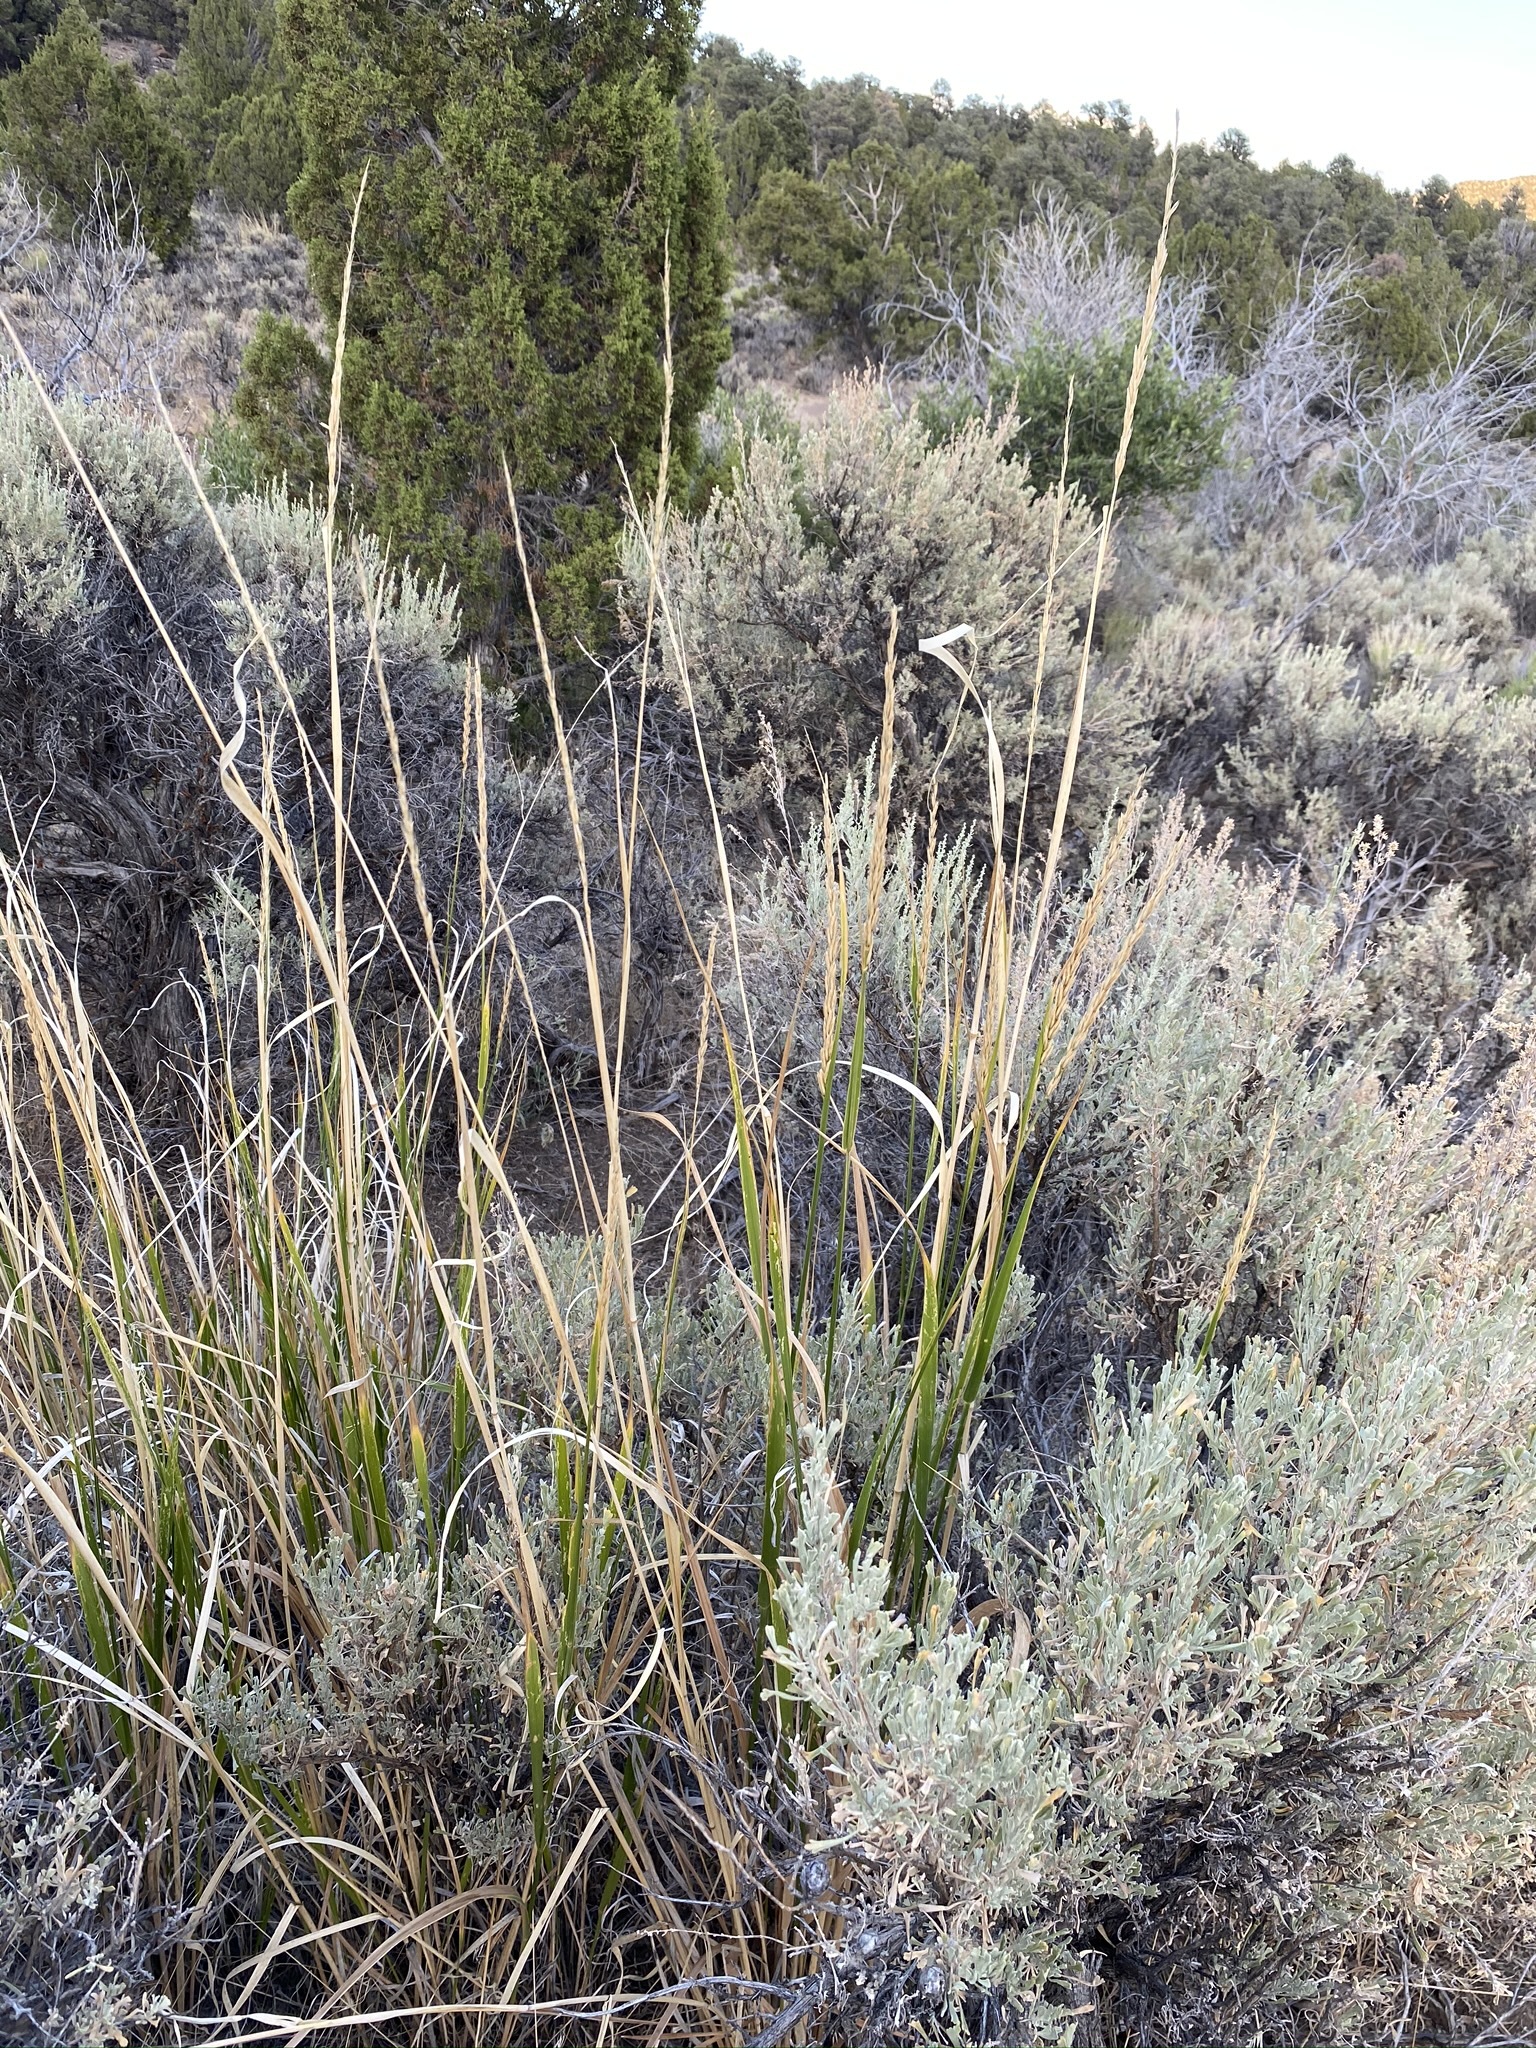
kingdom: Plantae
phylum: Tracheophyta
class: Liliopsida
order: Poales
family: Poaceae
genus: Leymus
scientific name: Leymus cinereus
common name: Basin wild rye
